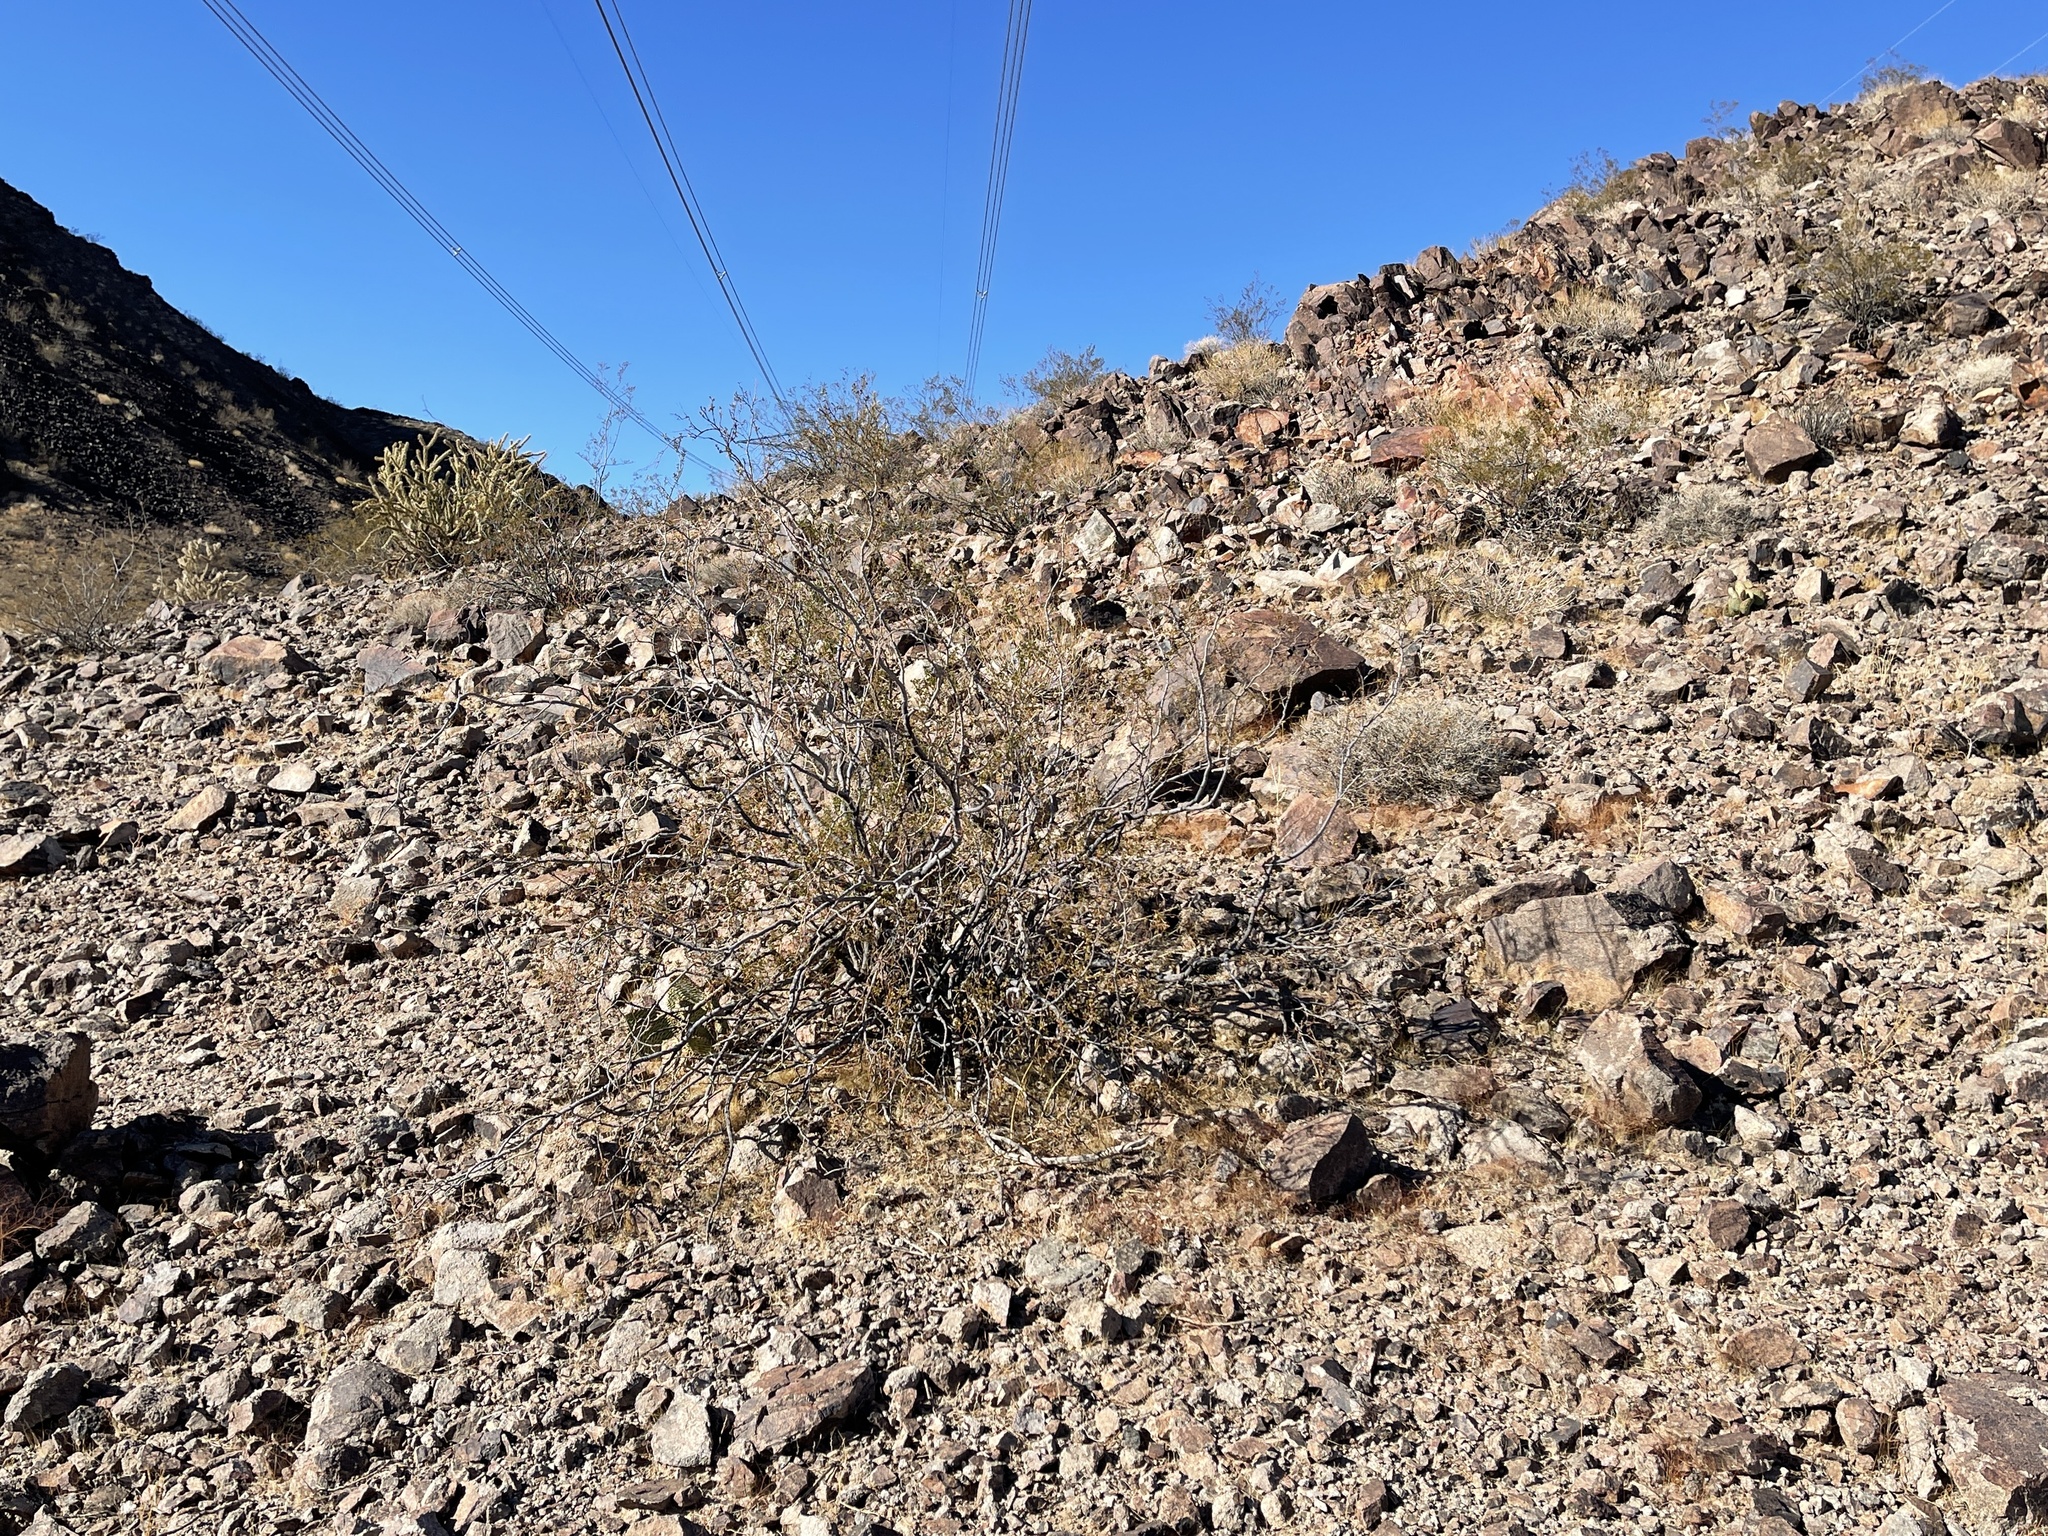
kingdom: Plantae
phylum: Tracheophyta
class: Magnoliopsida
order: Zygophyllales
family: Zygophyllaceae
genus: Larrea
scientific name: Larrea tridentata
